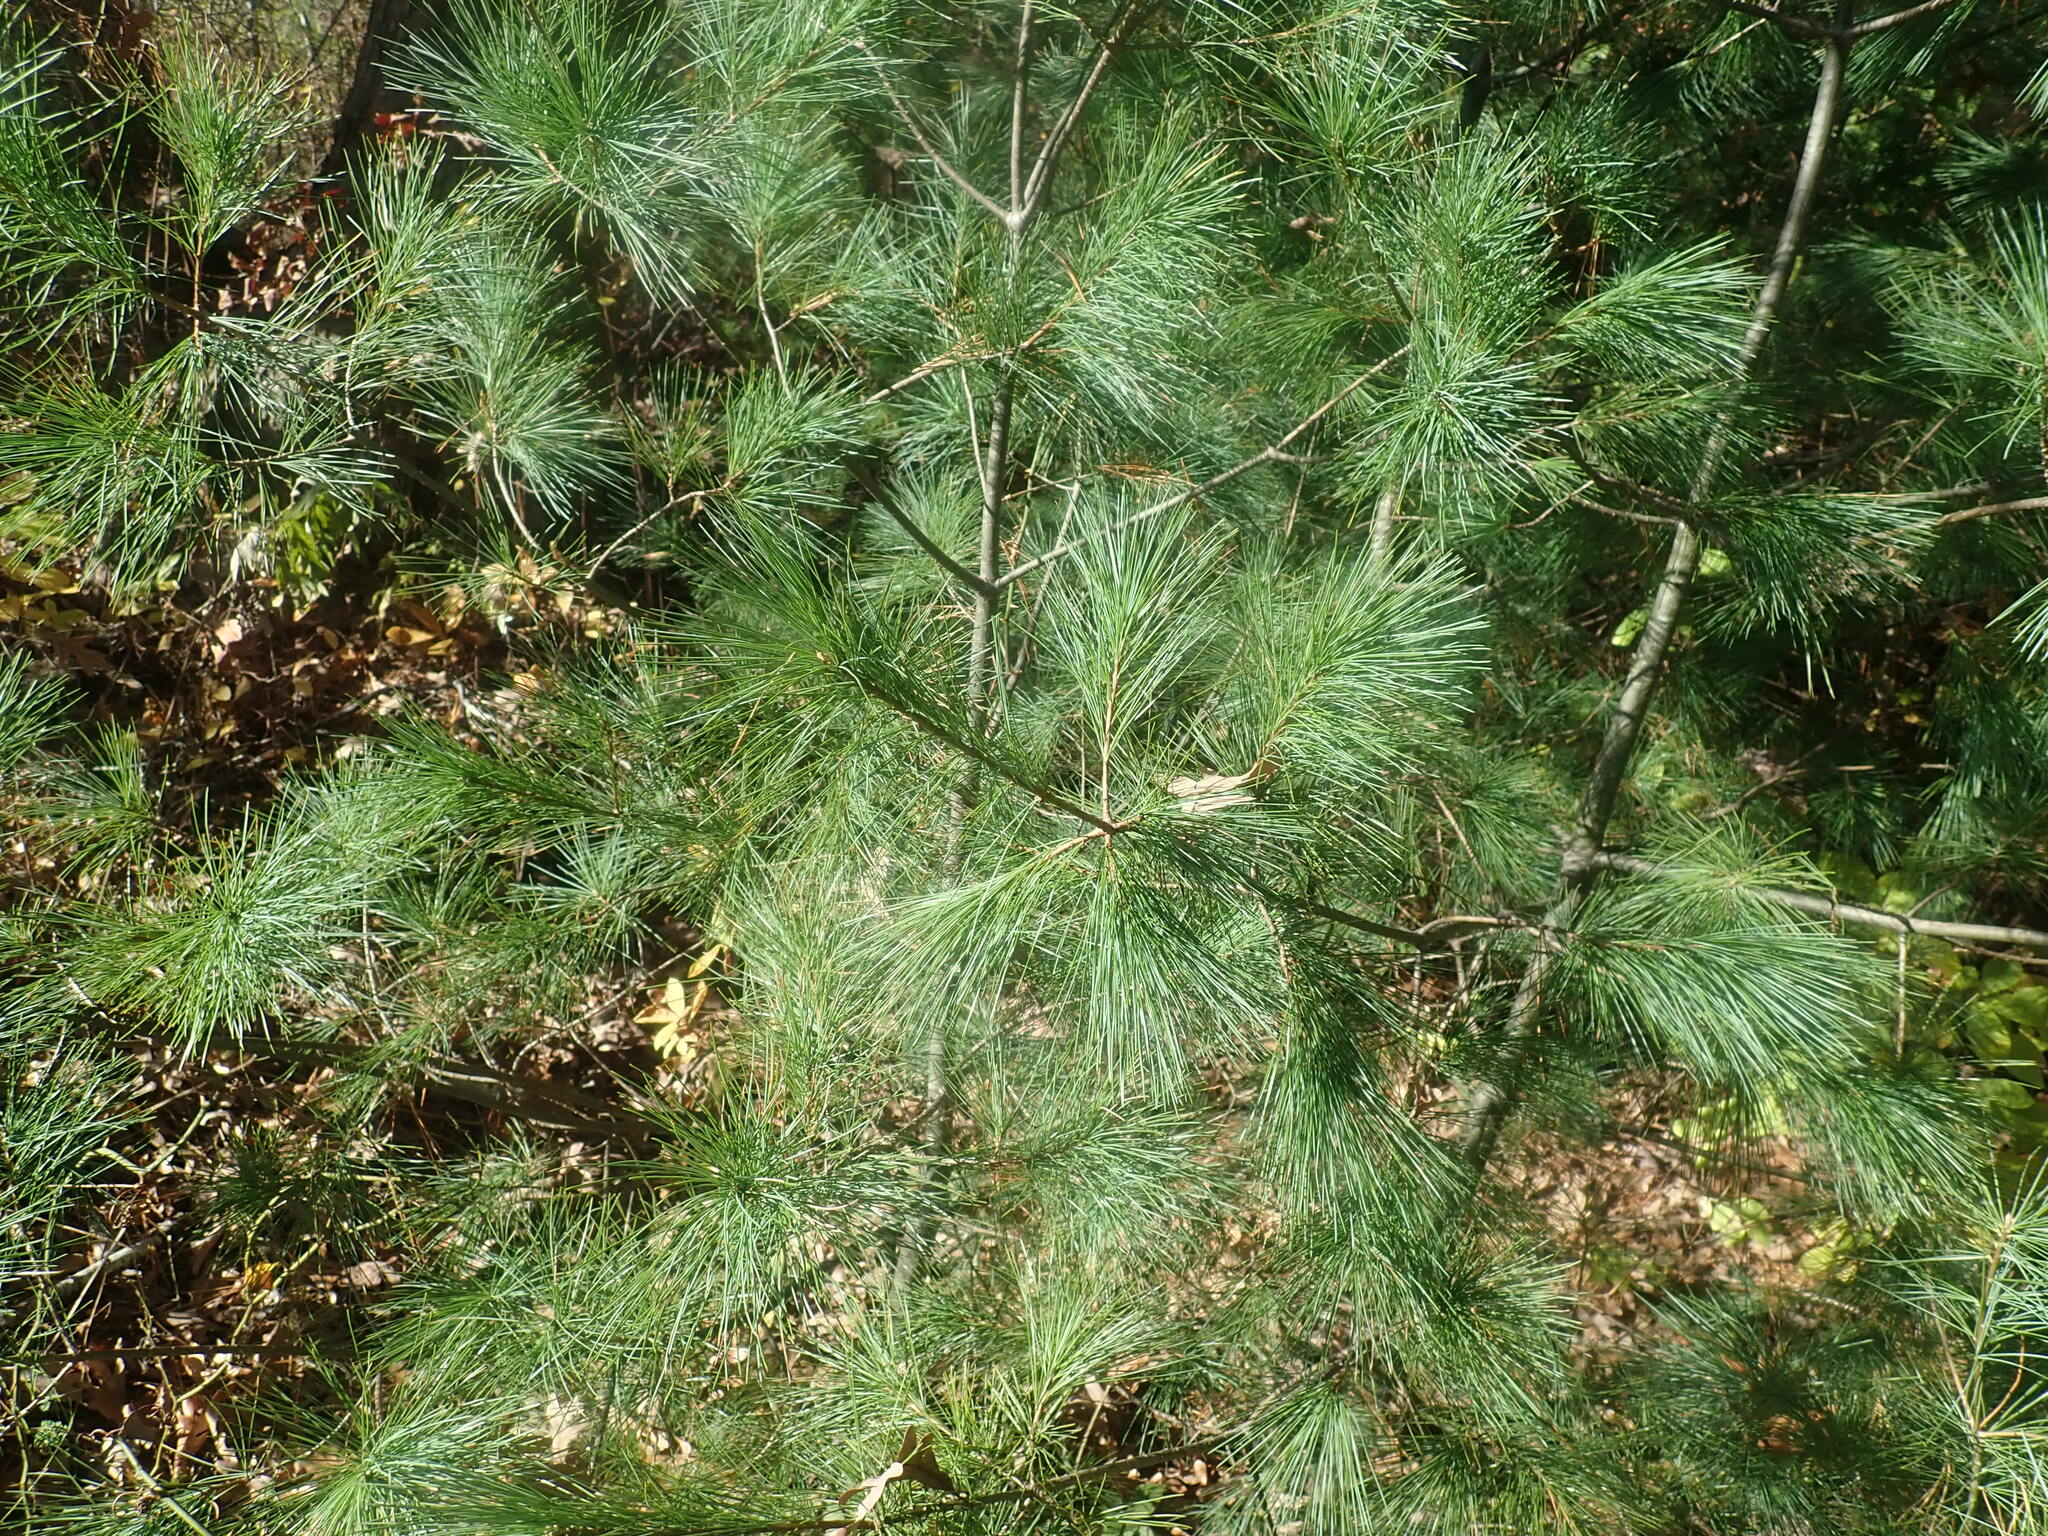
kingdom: Plantae
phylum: Tracheophyta
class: Pinopsida
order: Pinales
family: Pinaceae
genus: Pinus
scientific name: Pinus strobus
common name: Weymouth pine
